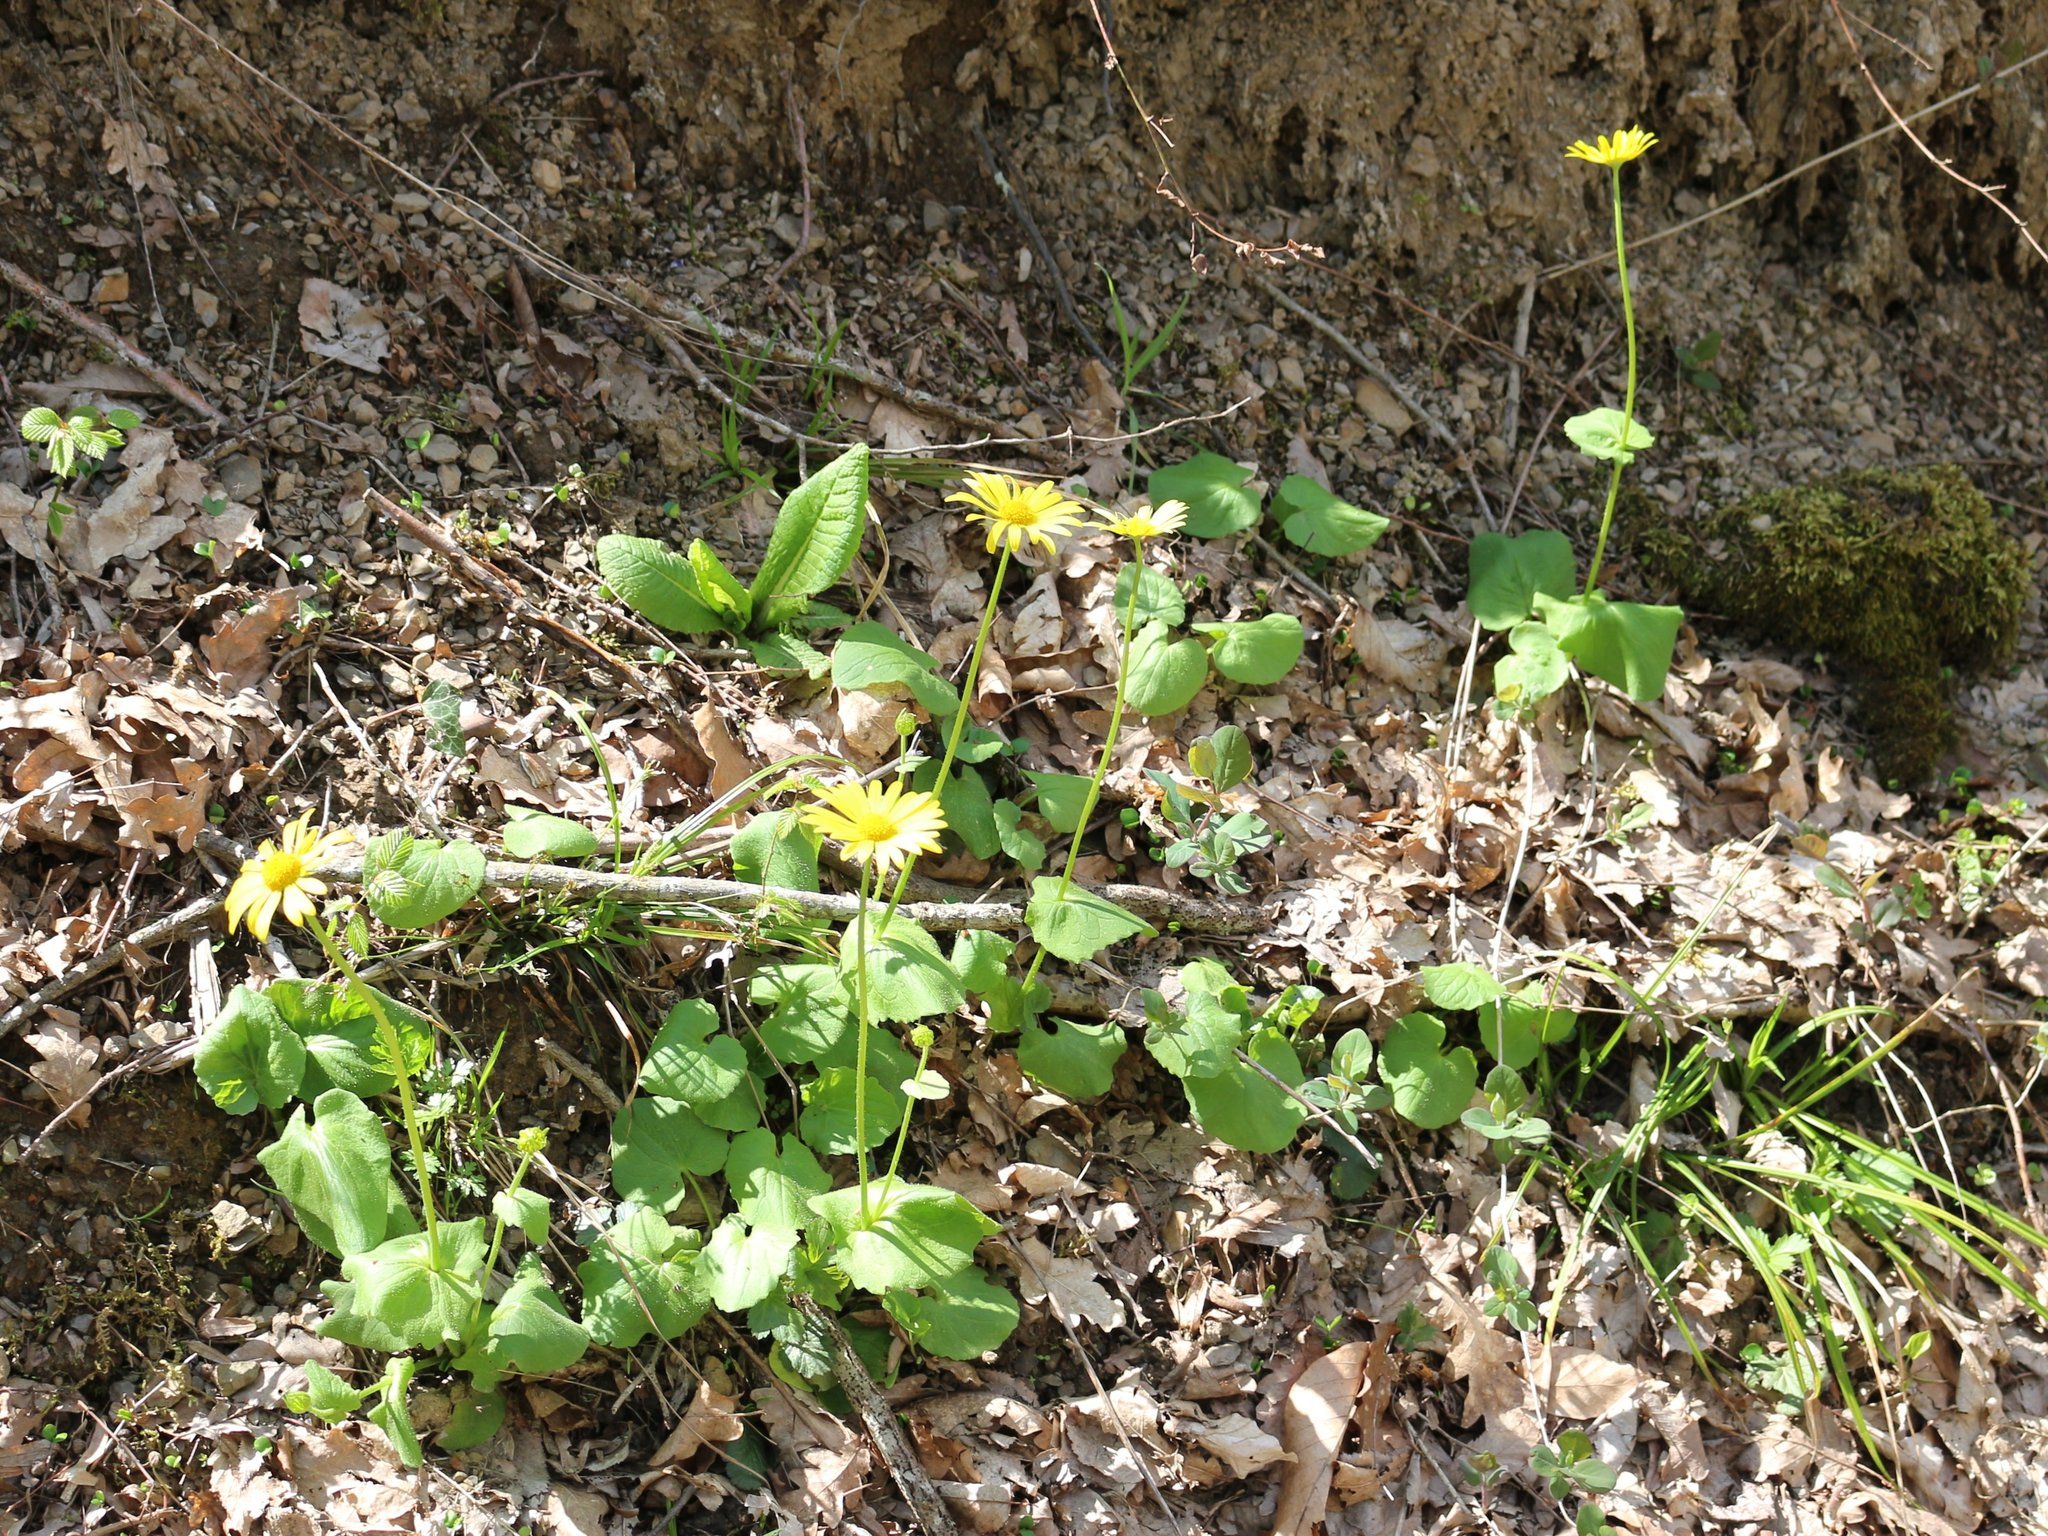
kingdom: Plantae
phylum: Tracheophyta
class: Magnoliopsida
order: Asterales
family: Asteraceae
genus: Doronicum
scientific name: Doronicum
